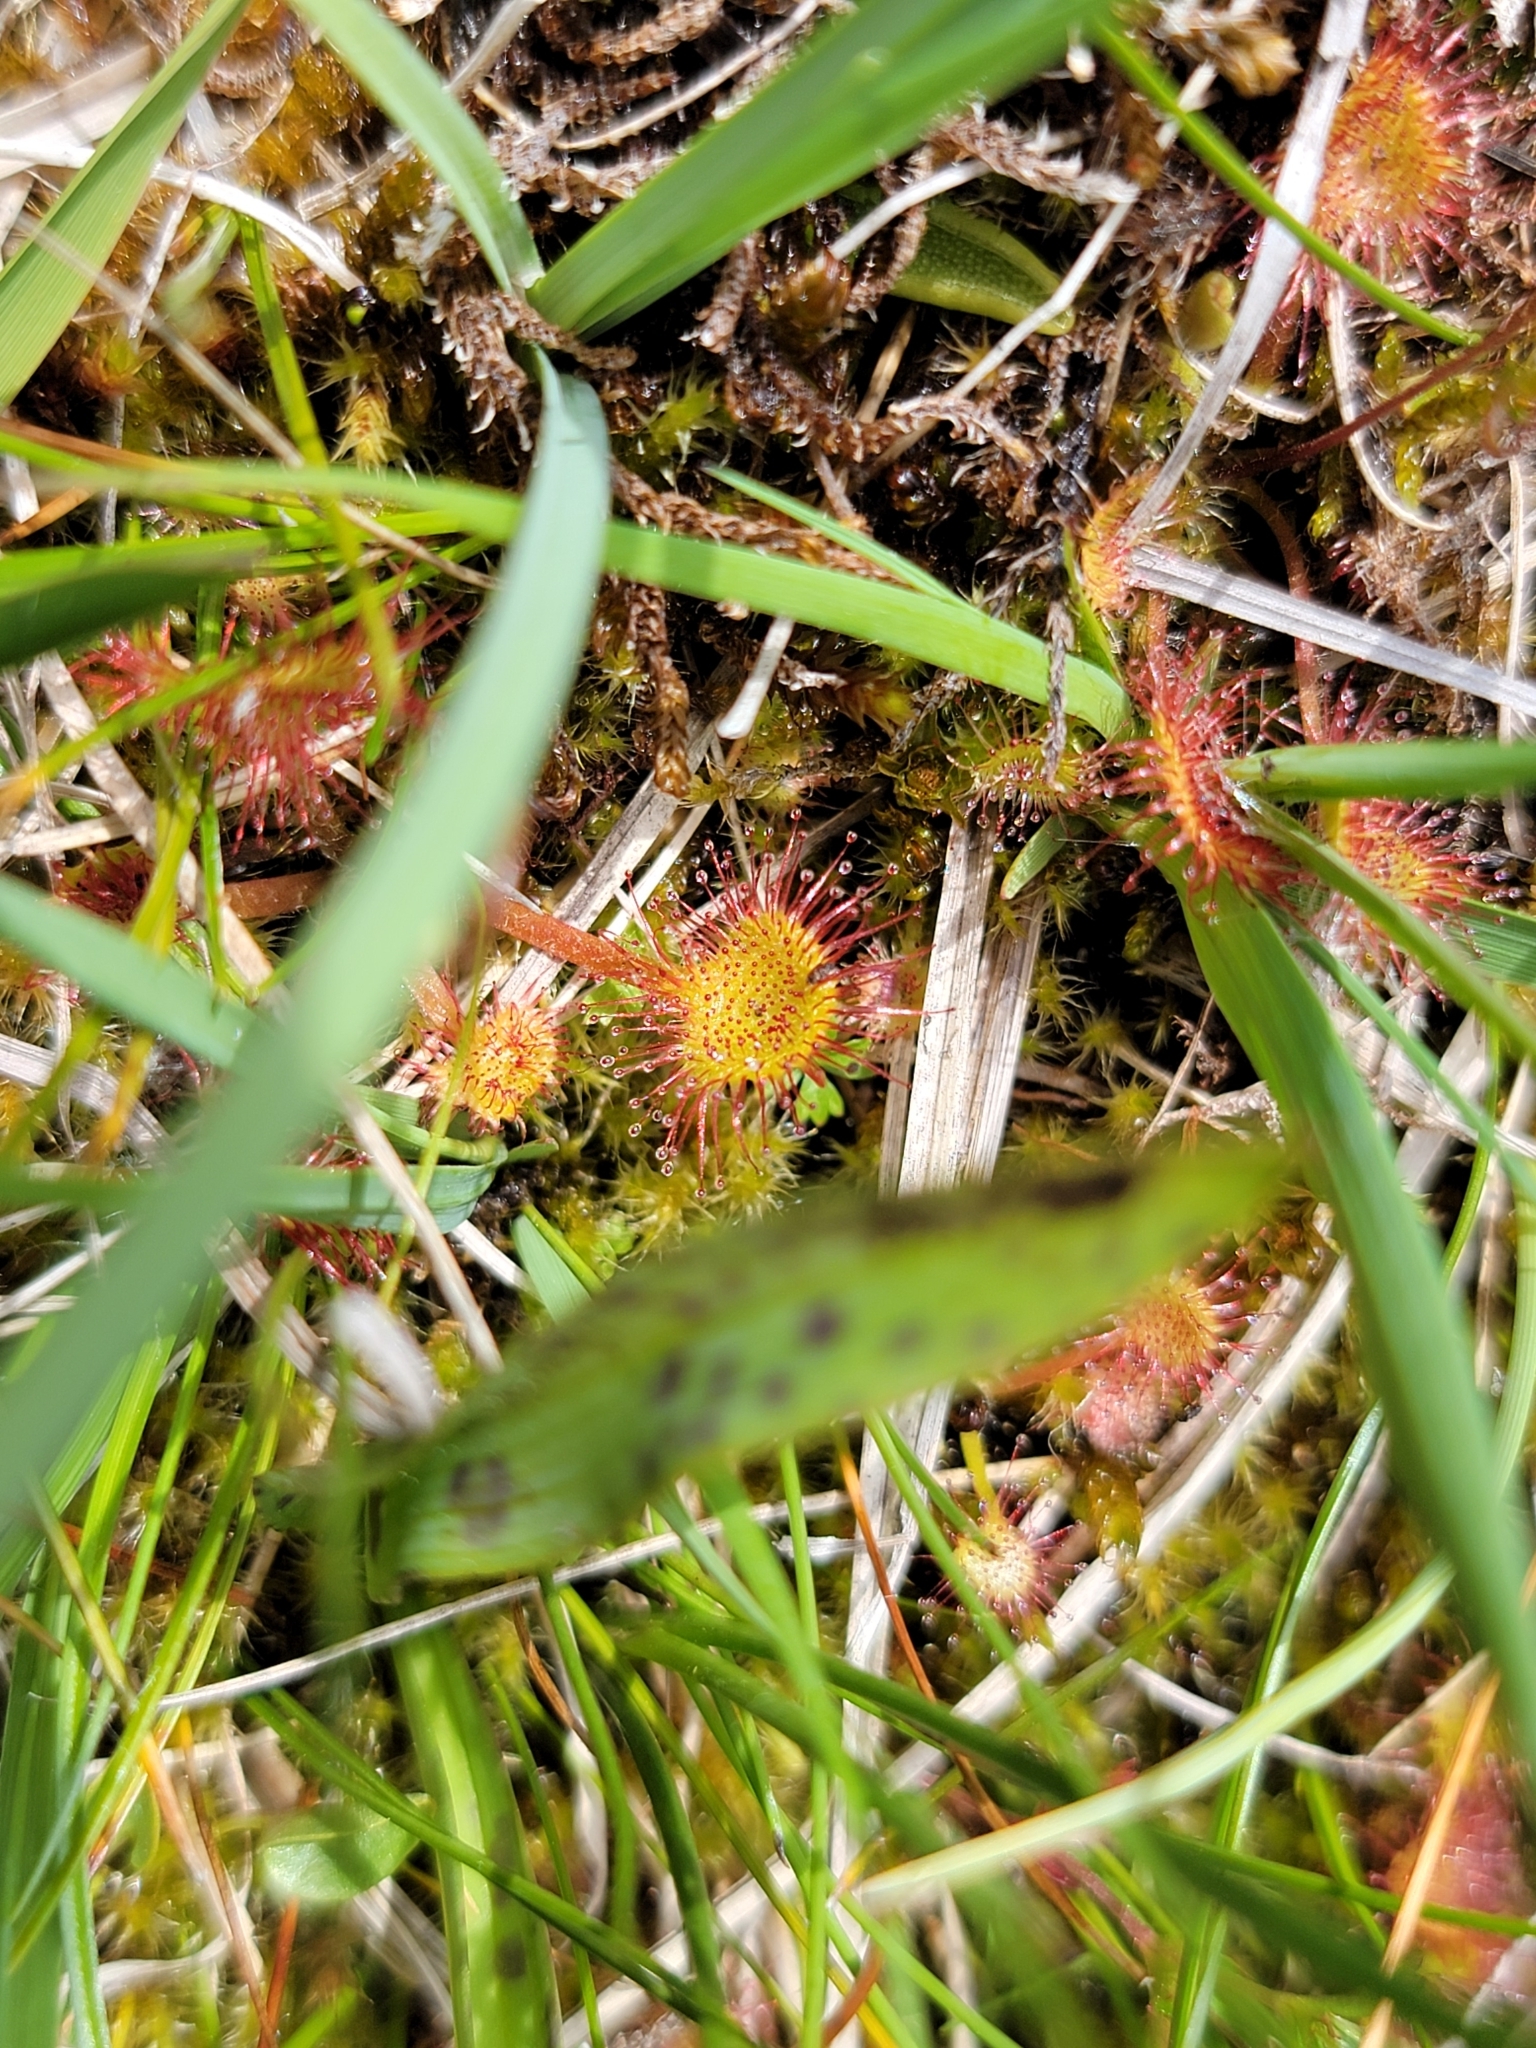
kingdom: Plantae
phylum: Tracheophyta
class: Magnoliopsida
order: Caryophyllales
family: Droseraceae
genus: Drosera
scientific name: Drosera rotundifolia
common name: Round-leaved sundew
